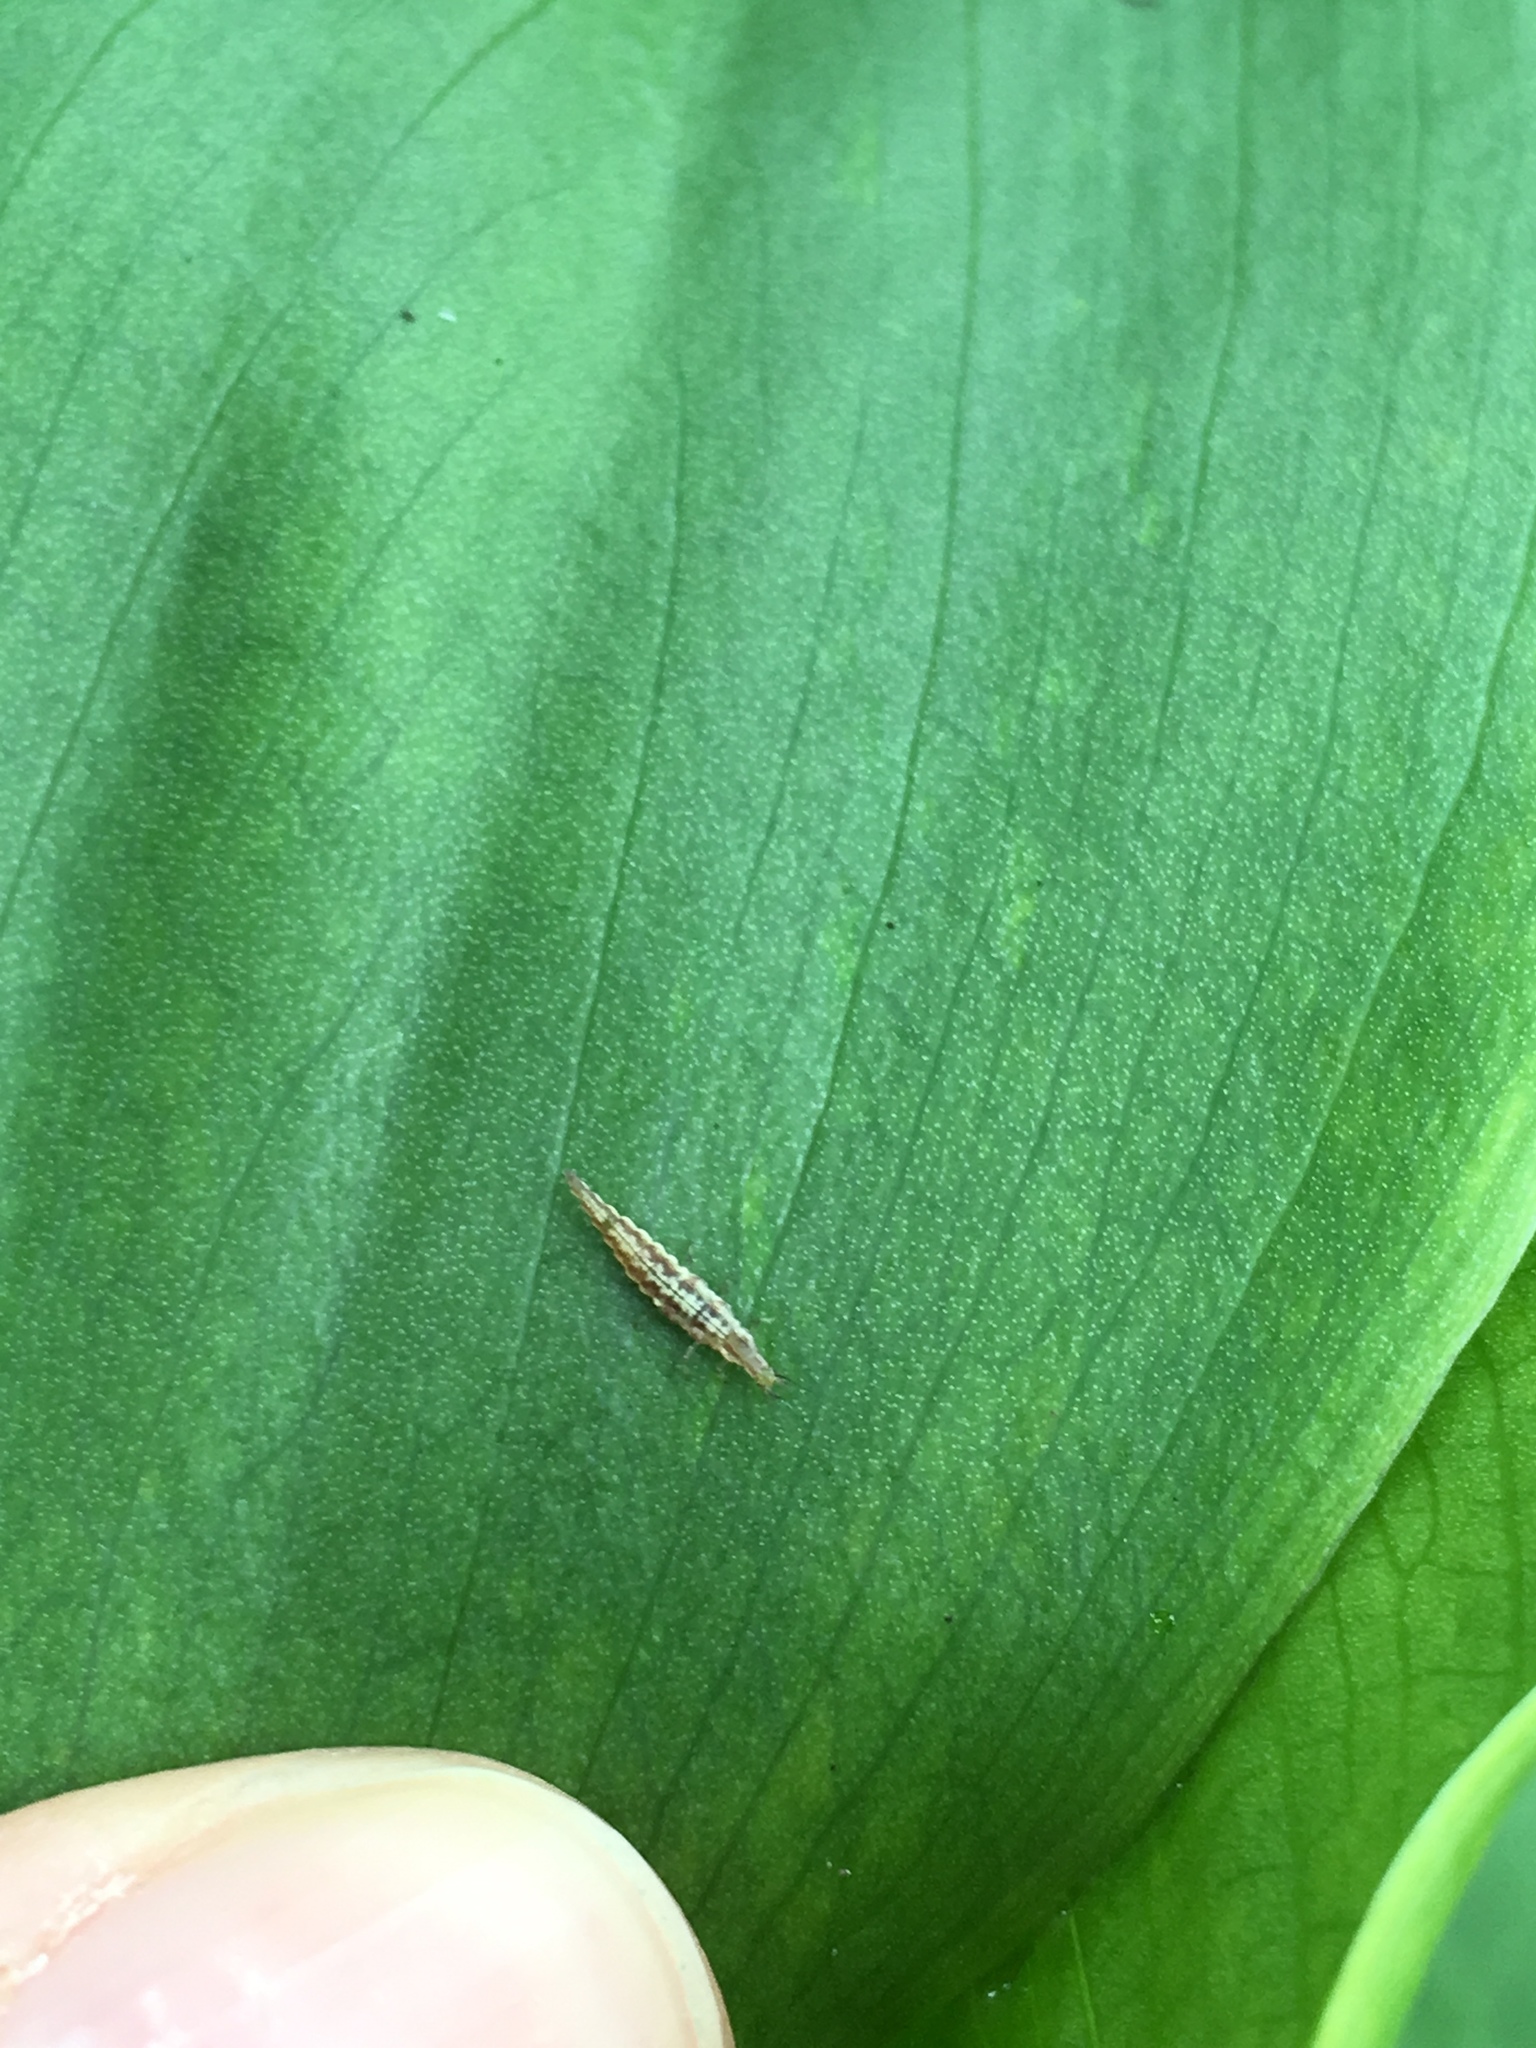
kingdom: Animalia
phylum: Arthropoda
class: Insecta
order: Neuroptera
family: Hemerobiidae
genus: Micromus
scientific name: Micromus tasmaniae
